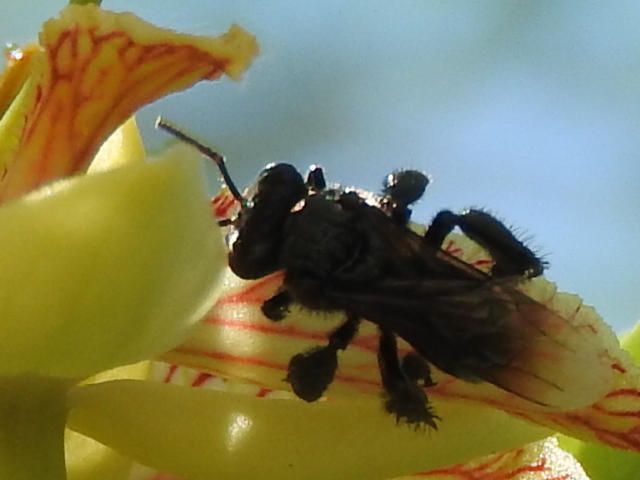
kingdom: Animalia
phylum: Arthropoda
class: Insecta
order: Hymenoptera
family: Apidae
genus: Frieseomelitta
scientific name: Frieseomelitta nigra
